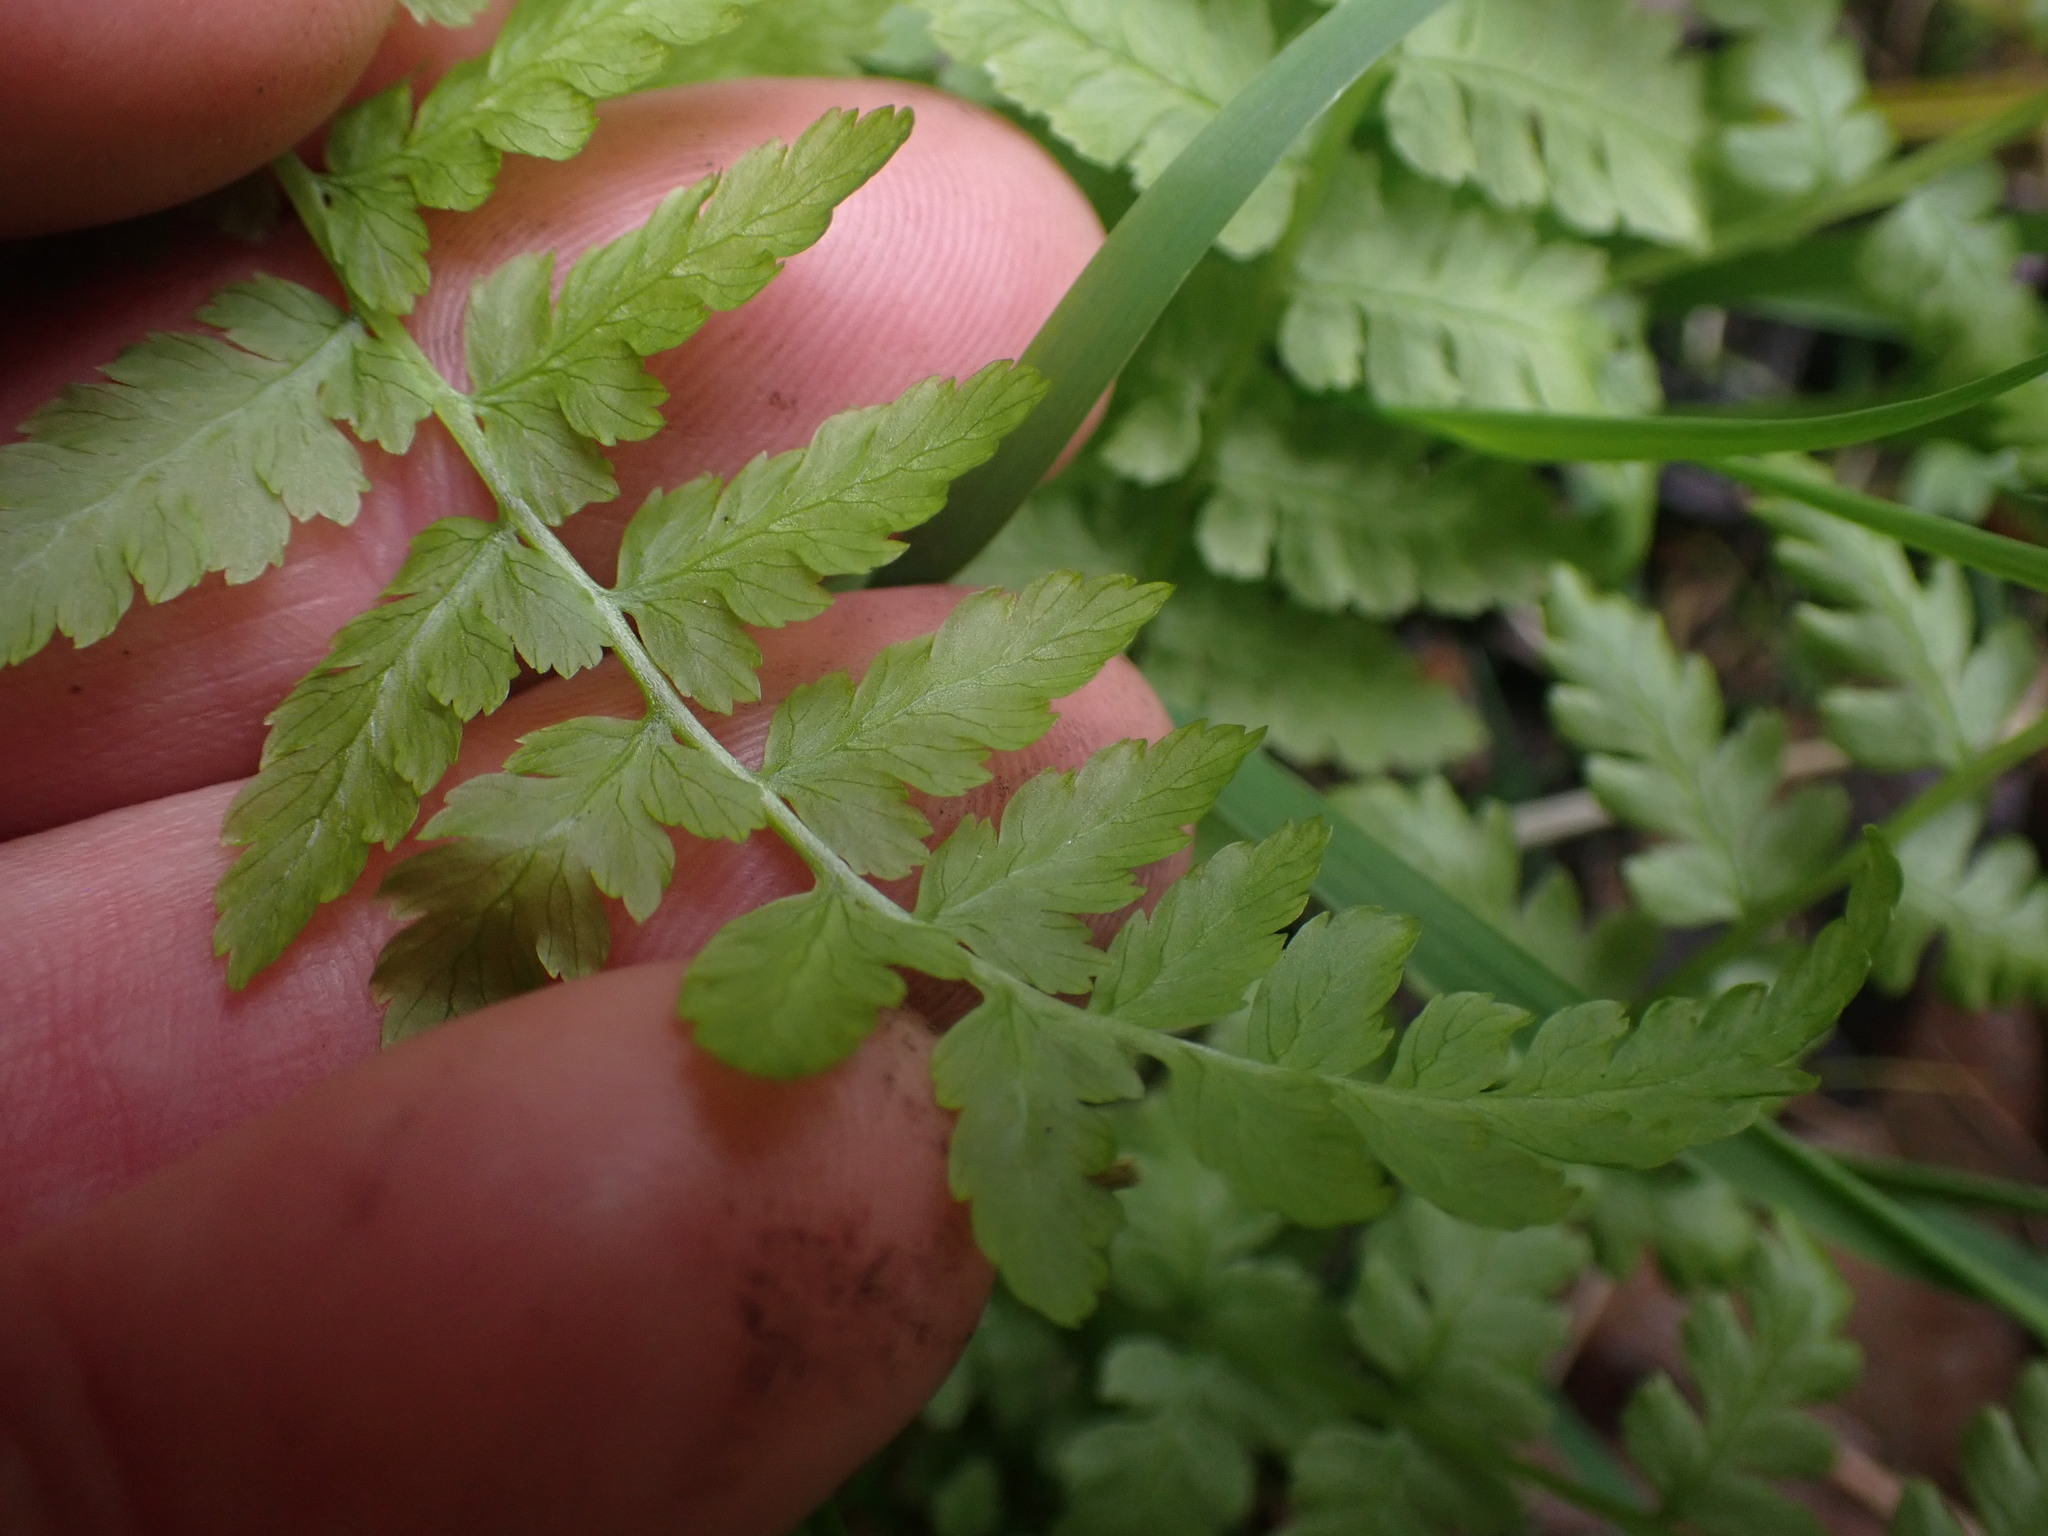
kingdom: Plantae
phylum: Tracheophyta
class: Polypodiopsida
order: Polypodiales
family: Athyriaceae
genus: Athyrium
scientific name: Athyrium filix-femina
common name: Lady fern
